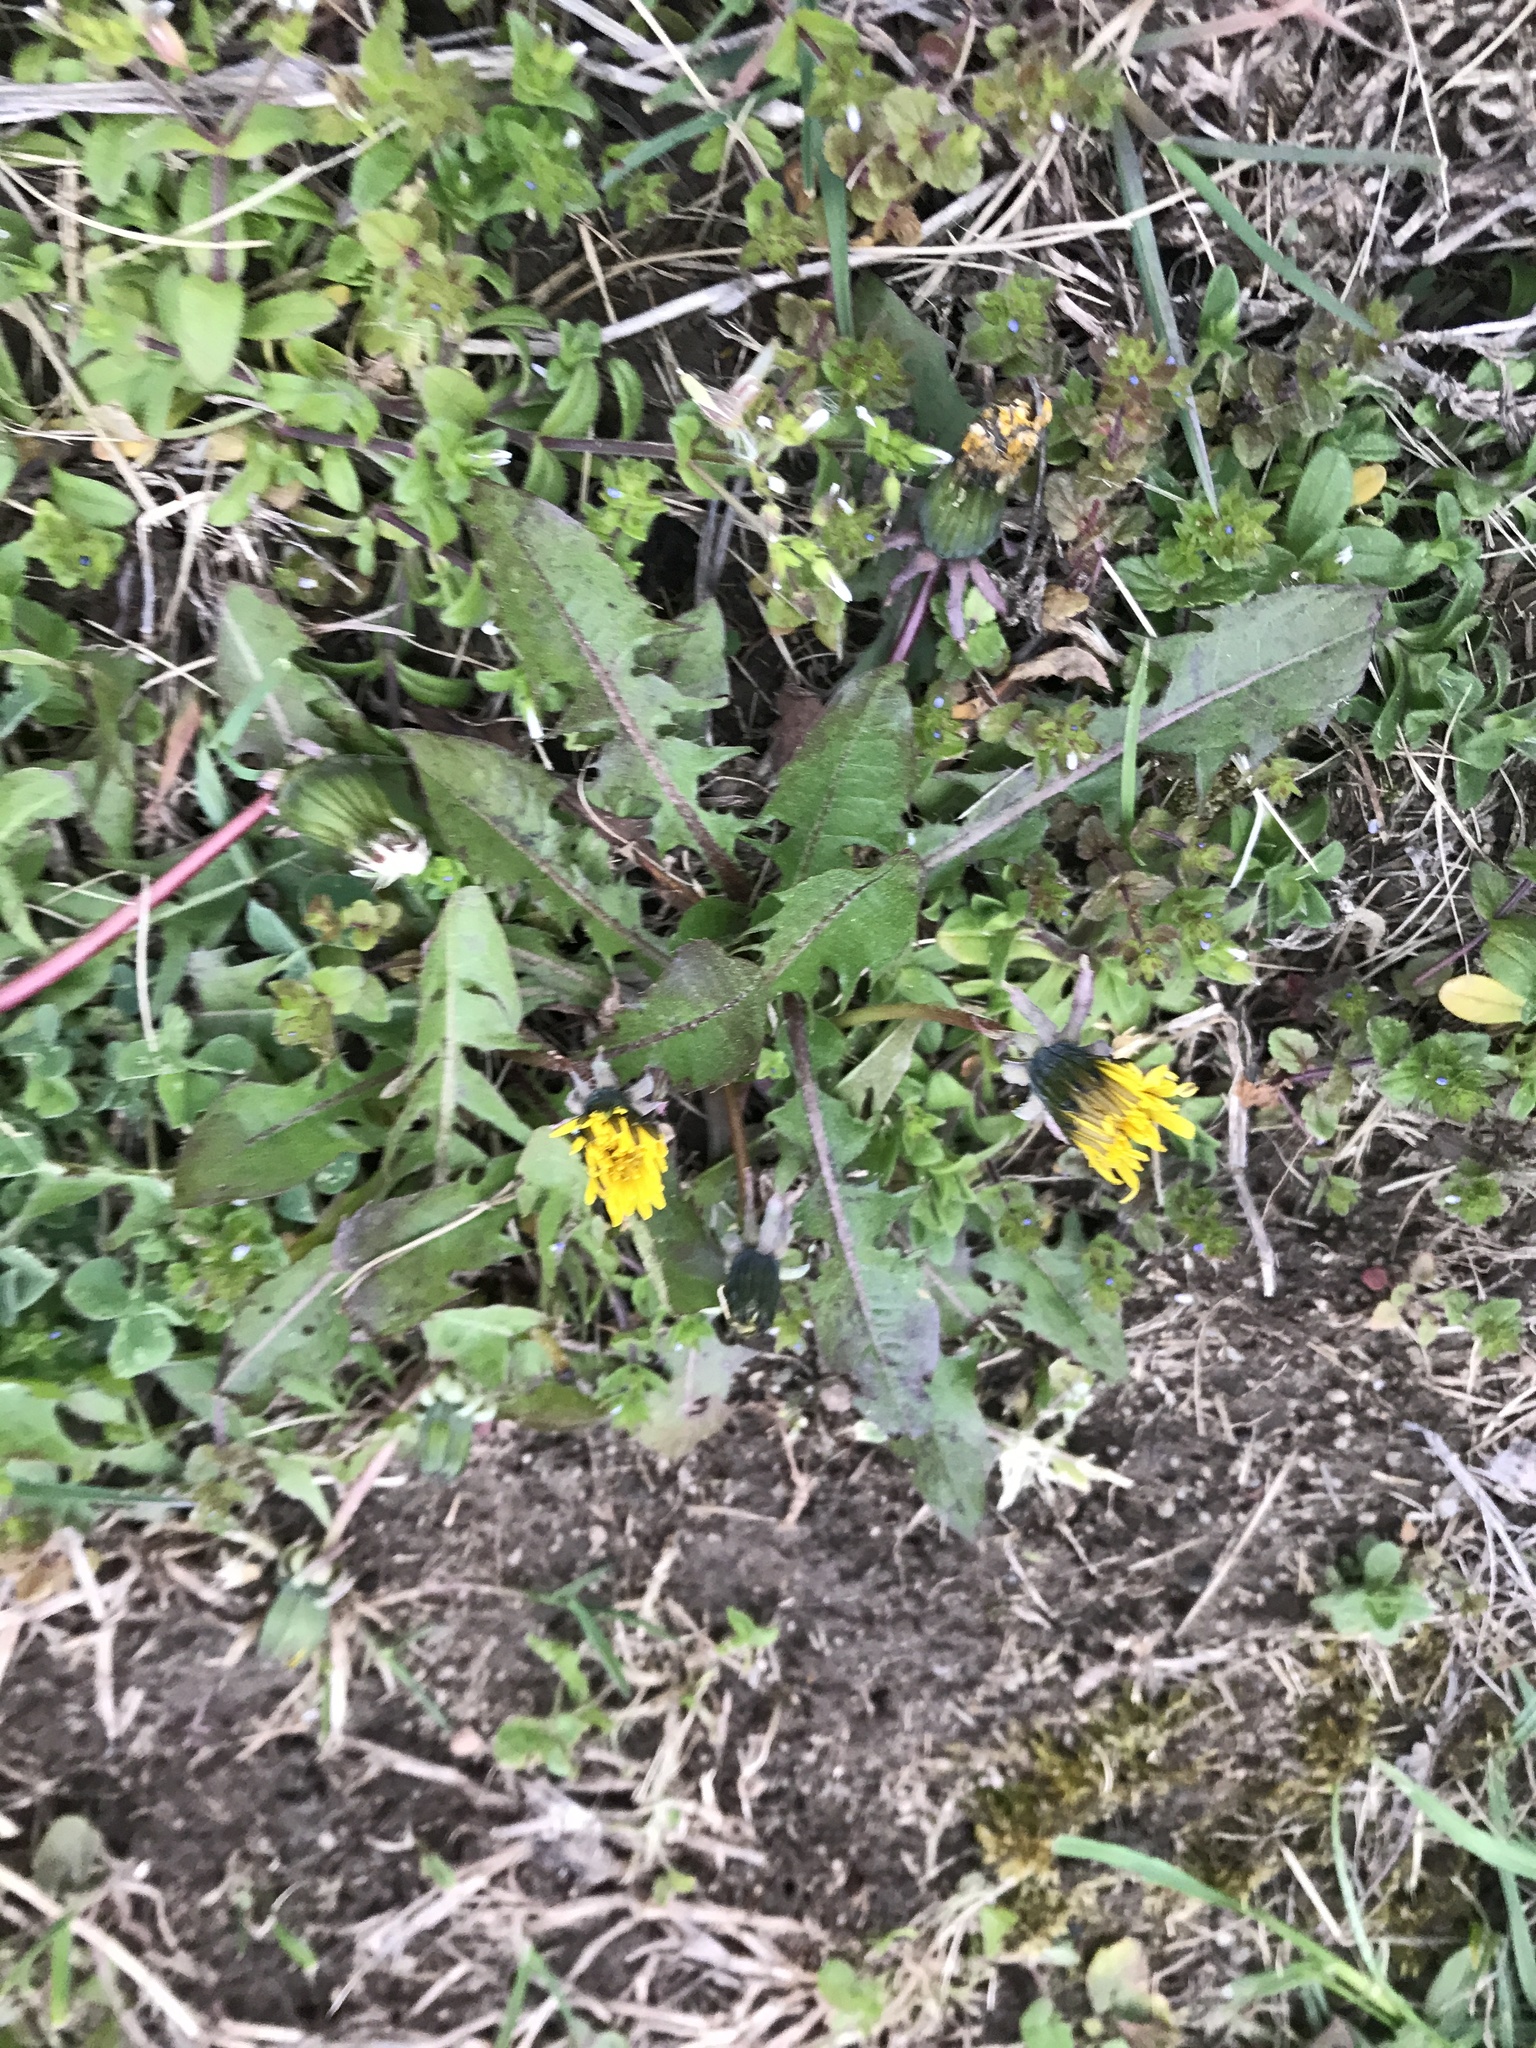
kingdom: Plantae
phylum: Tracheophyta
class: Magnoliopsida
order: Asterales
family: Asteraceae
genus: Taraxacum
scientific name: Taraxacum officinale
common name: Common dandelion
